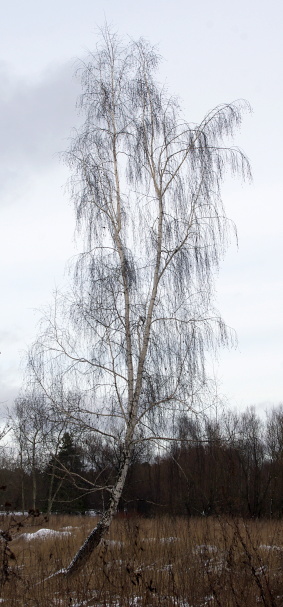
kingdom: Plantae
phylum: Tracheophyta
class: Magnoliopsida
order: Fagales
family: Betulaceae
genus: Betula
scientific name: Betula pendula
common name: Silver birch
